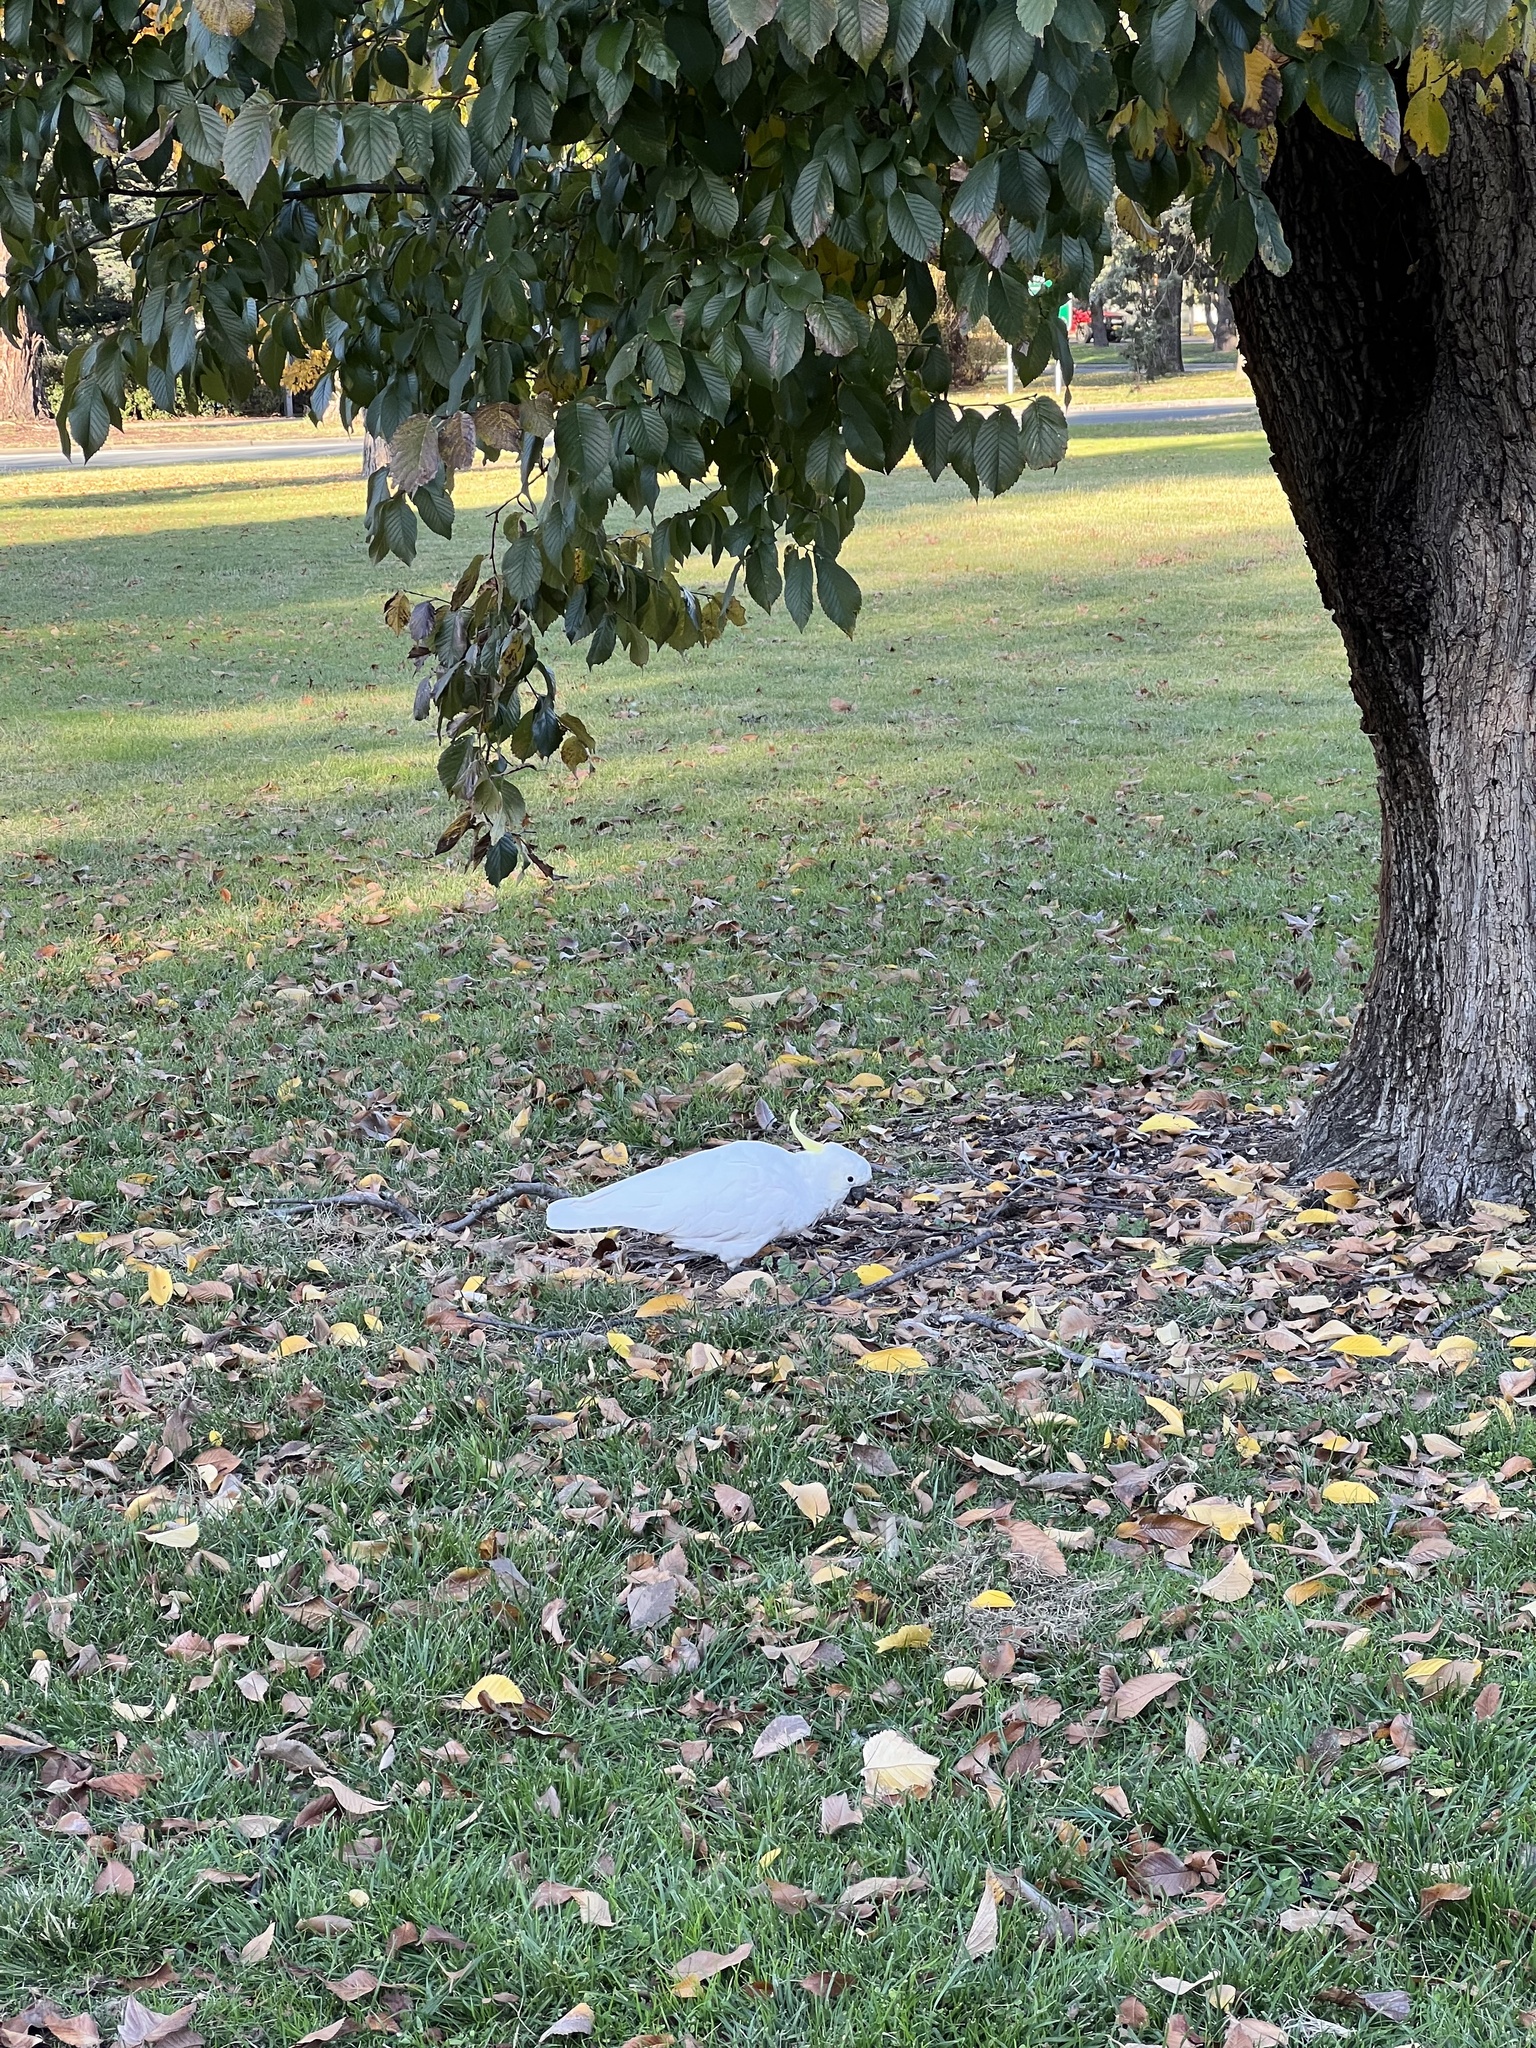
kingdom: Animalia
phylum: Chordata
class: Aves
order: Psittaciformes
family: Psittacidae
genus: Cacatua
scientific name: Cacatua galerita
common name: Sulphur-crested cockatoo
